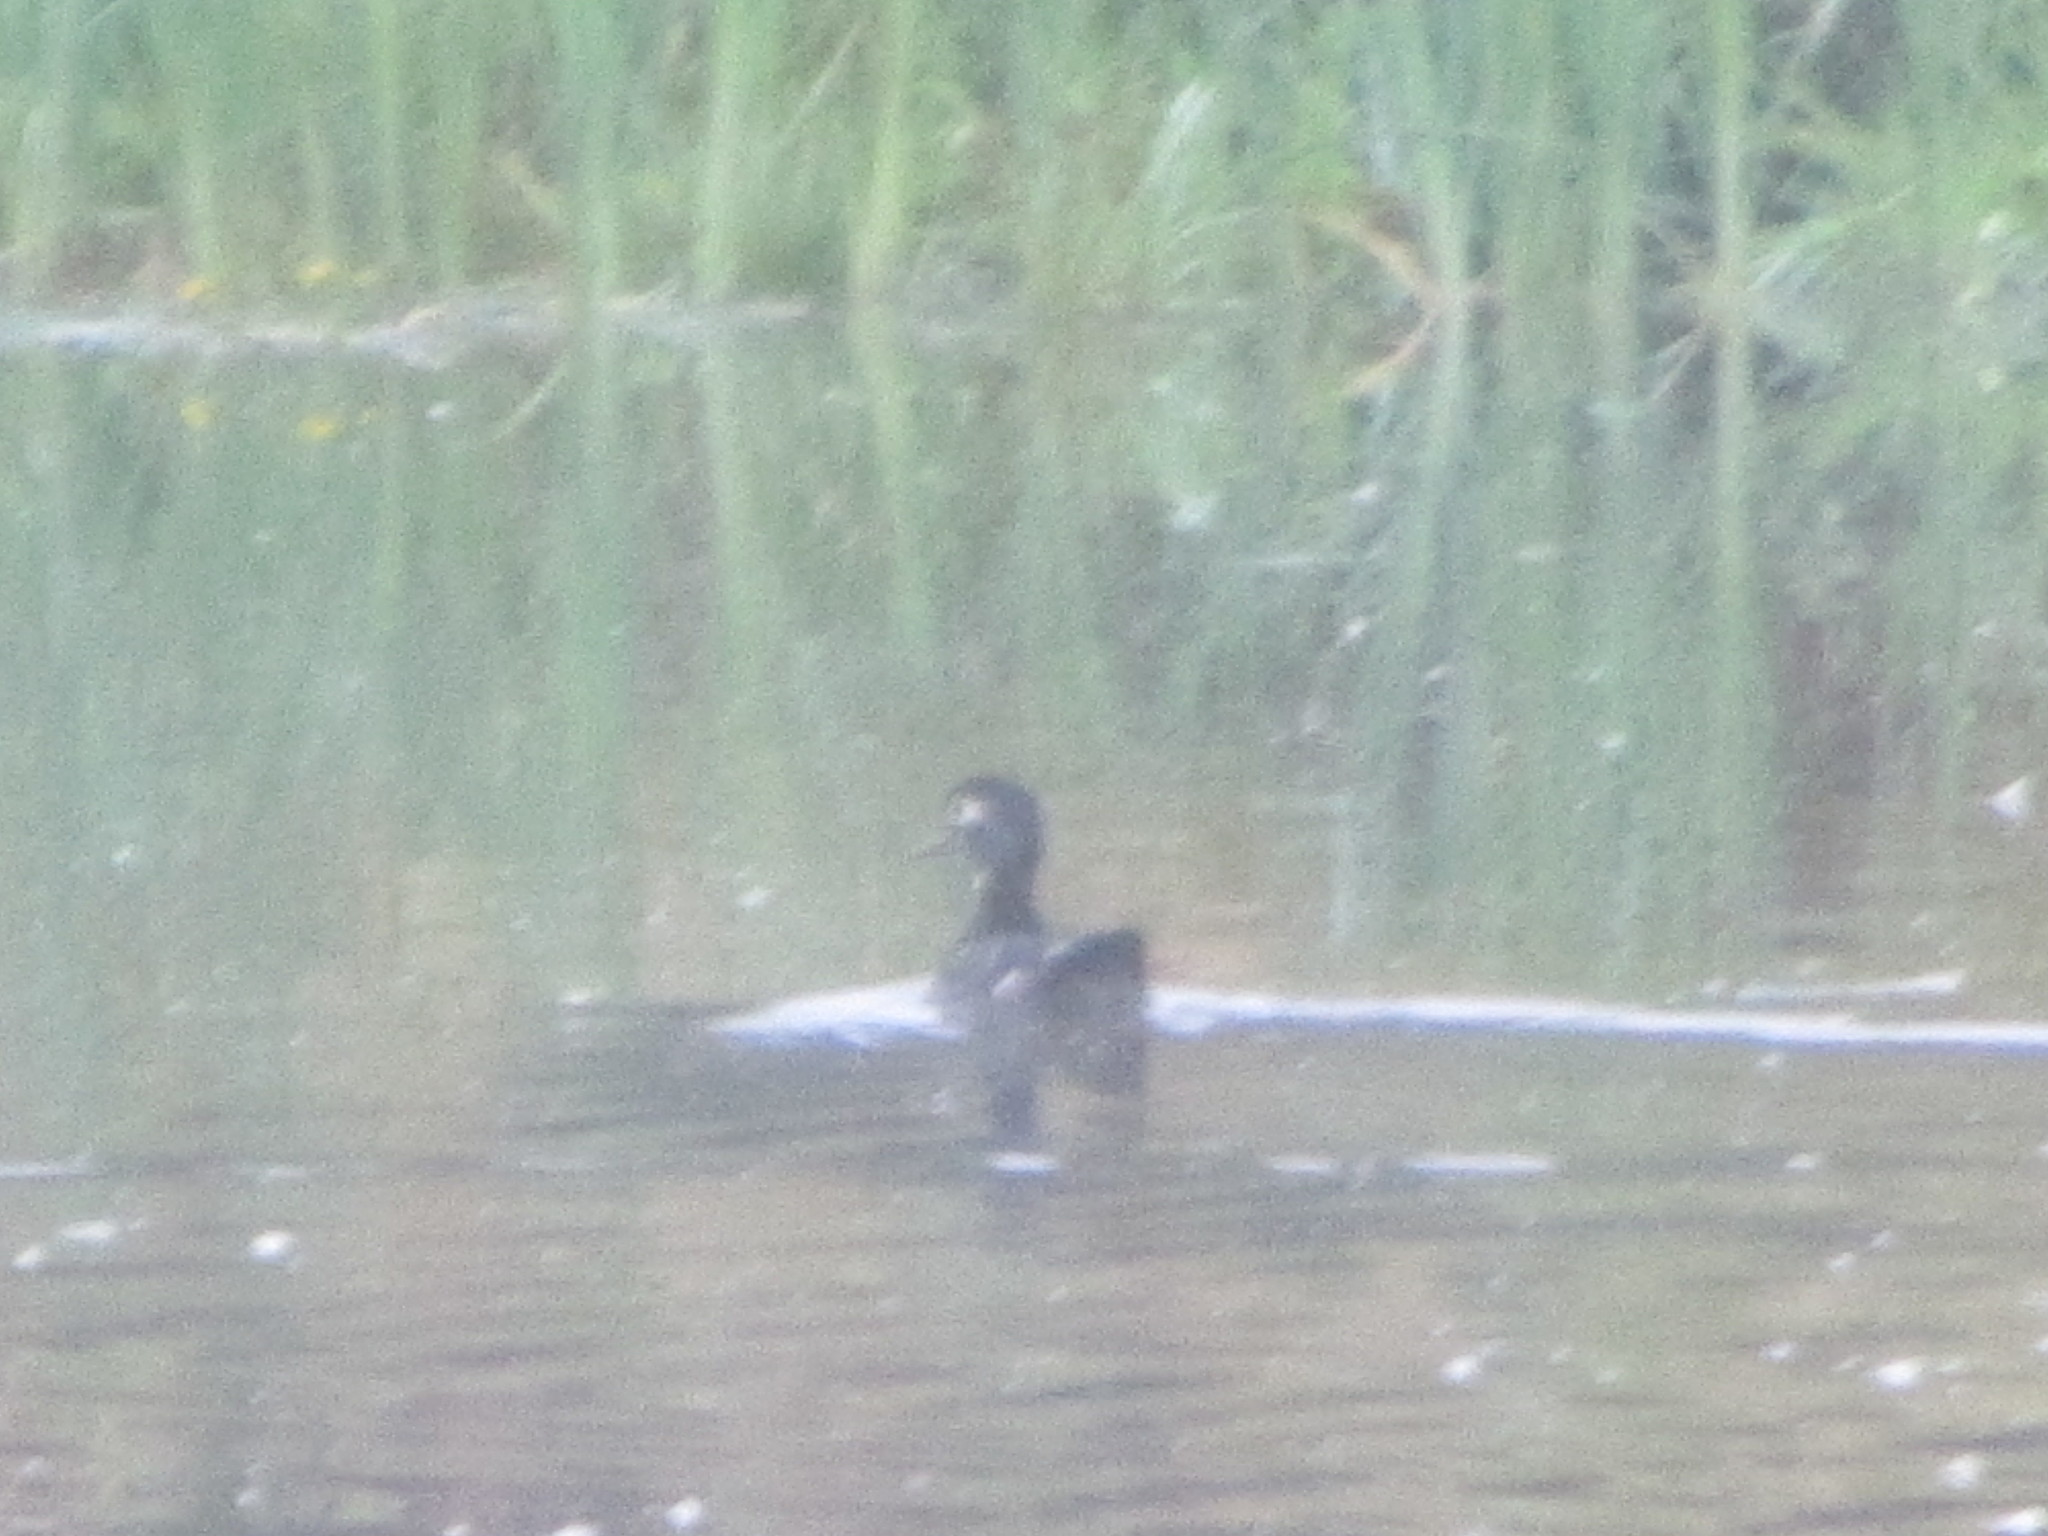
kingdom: Animalia
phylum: Chordata
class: Aves
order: Anseriformes
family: Anatidae
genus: Aix
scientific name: Aix sponsa
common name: Wood duck
